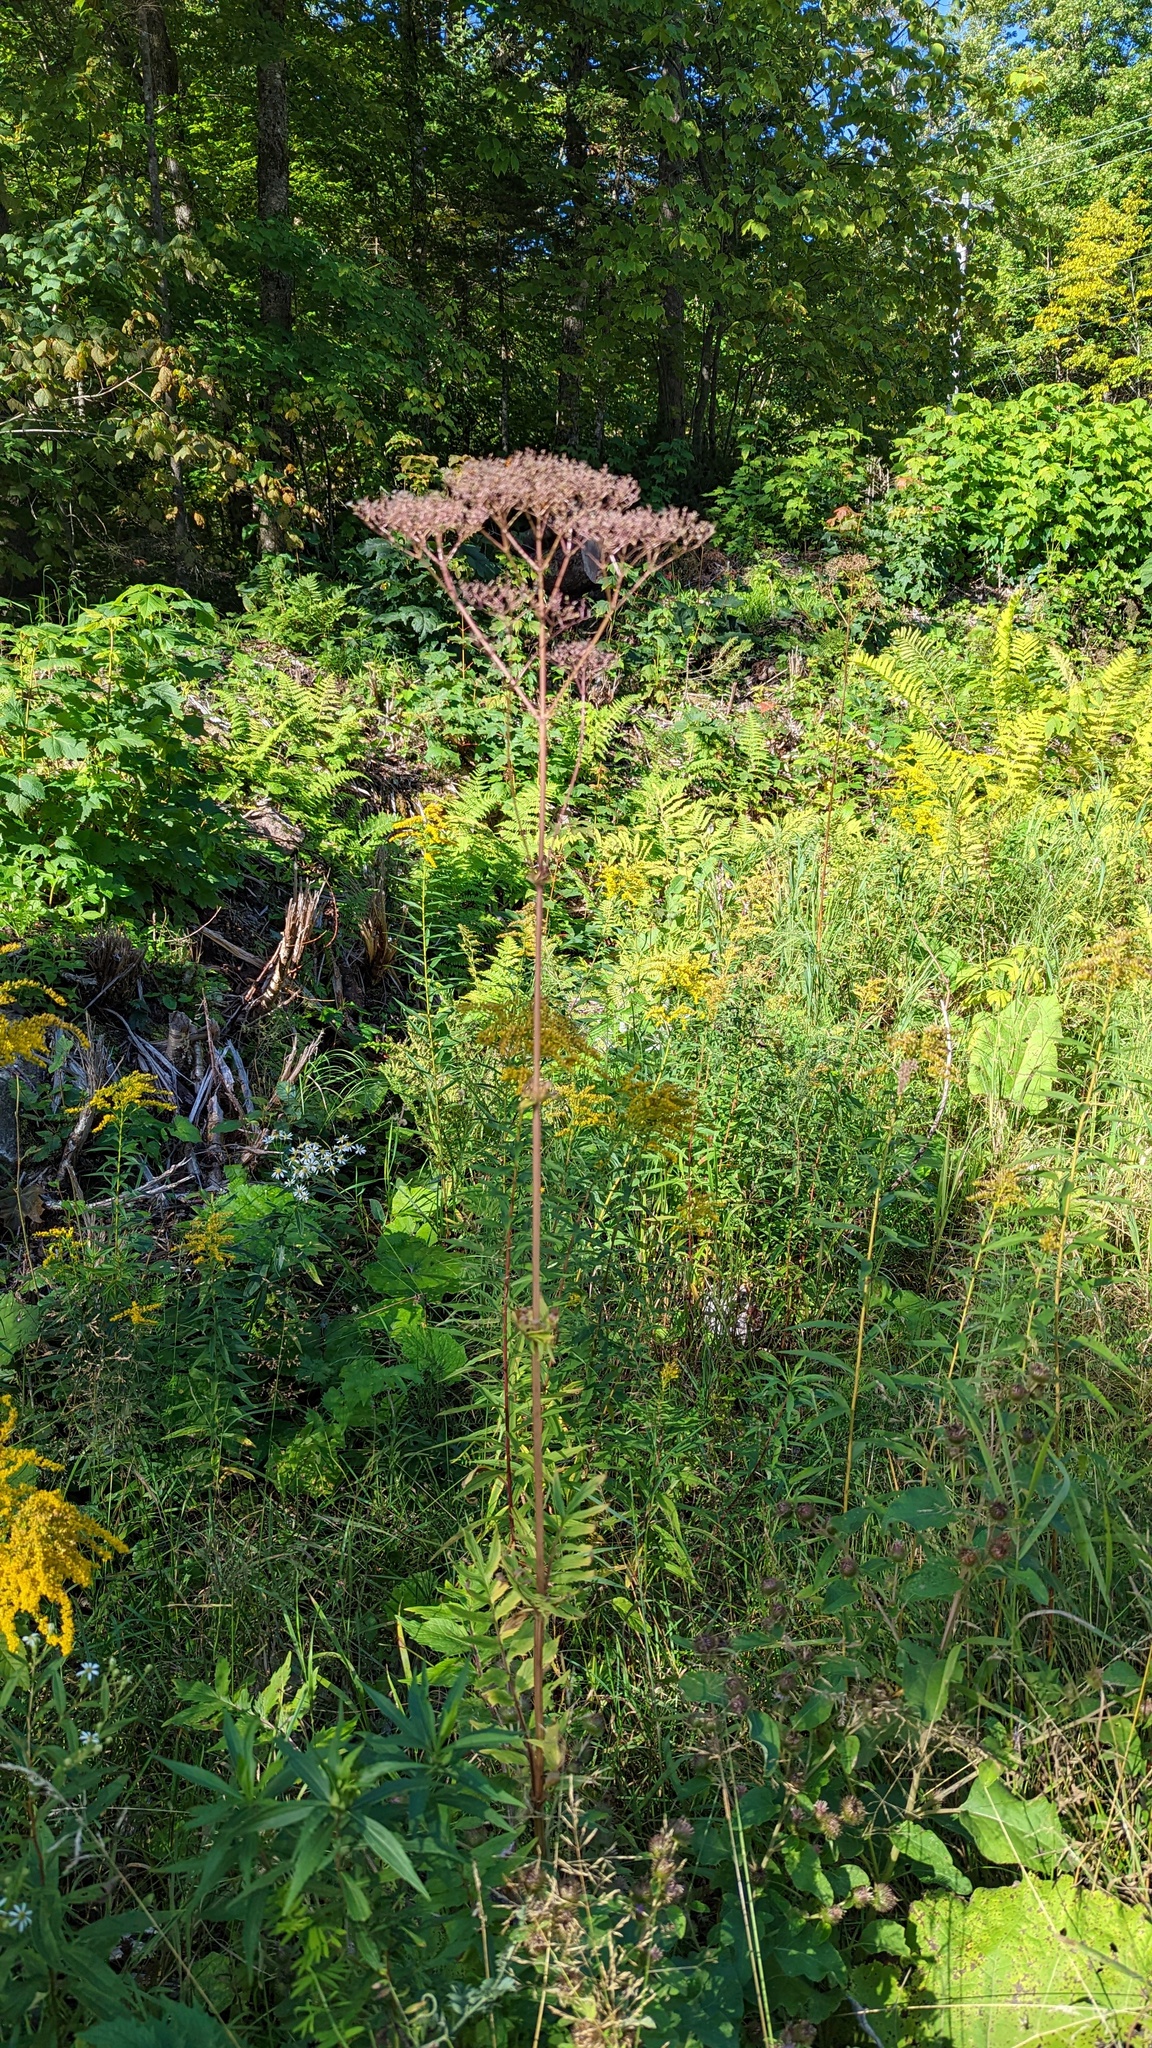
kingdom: Plantae
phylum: Tracheophyta
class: Magnoliopsida
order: Dipsacales
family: Caprifoliaceae
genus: Valeriana
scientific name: Valeriana officinalis
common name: Common valerian
